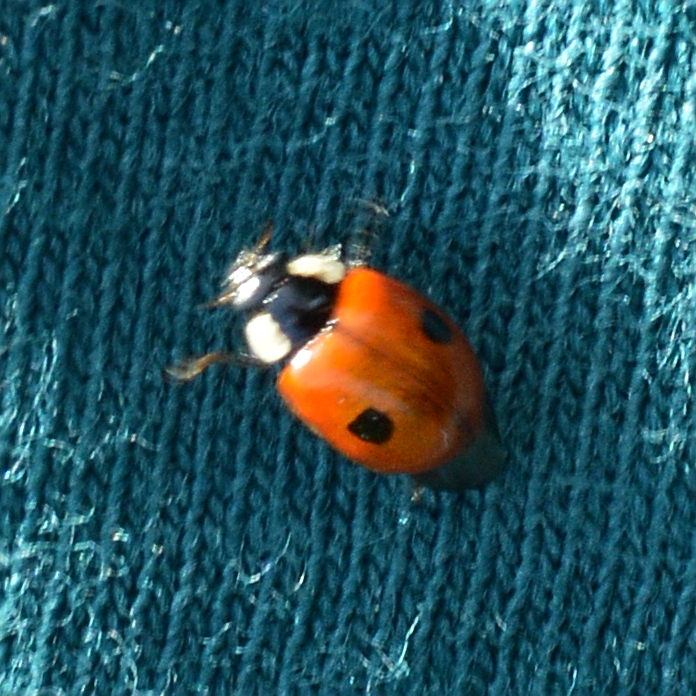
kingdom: Animalia
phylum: Arthropoda
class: Insecta
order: Coleoptera
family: Coccinellidae
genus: Adalia
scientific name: Adalia bipunctata
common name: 2-spot ladybird
